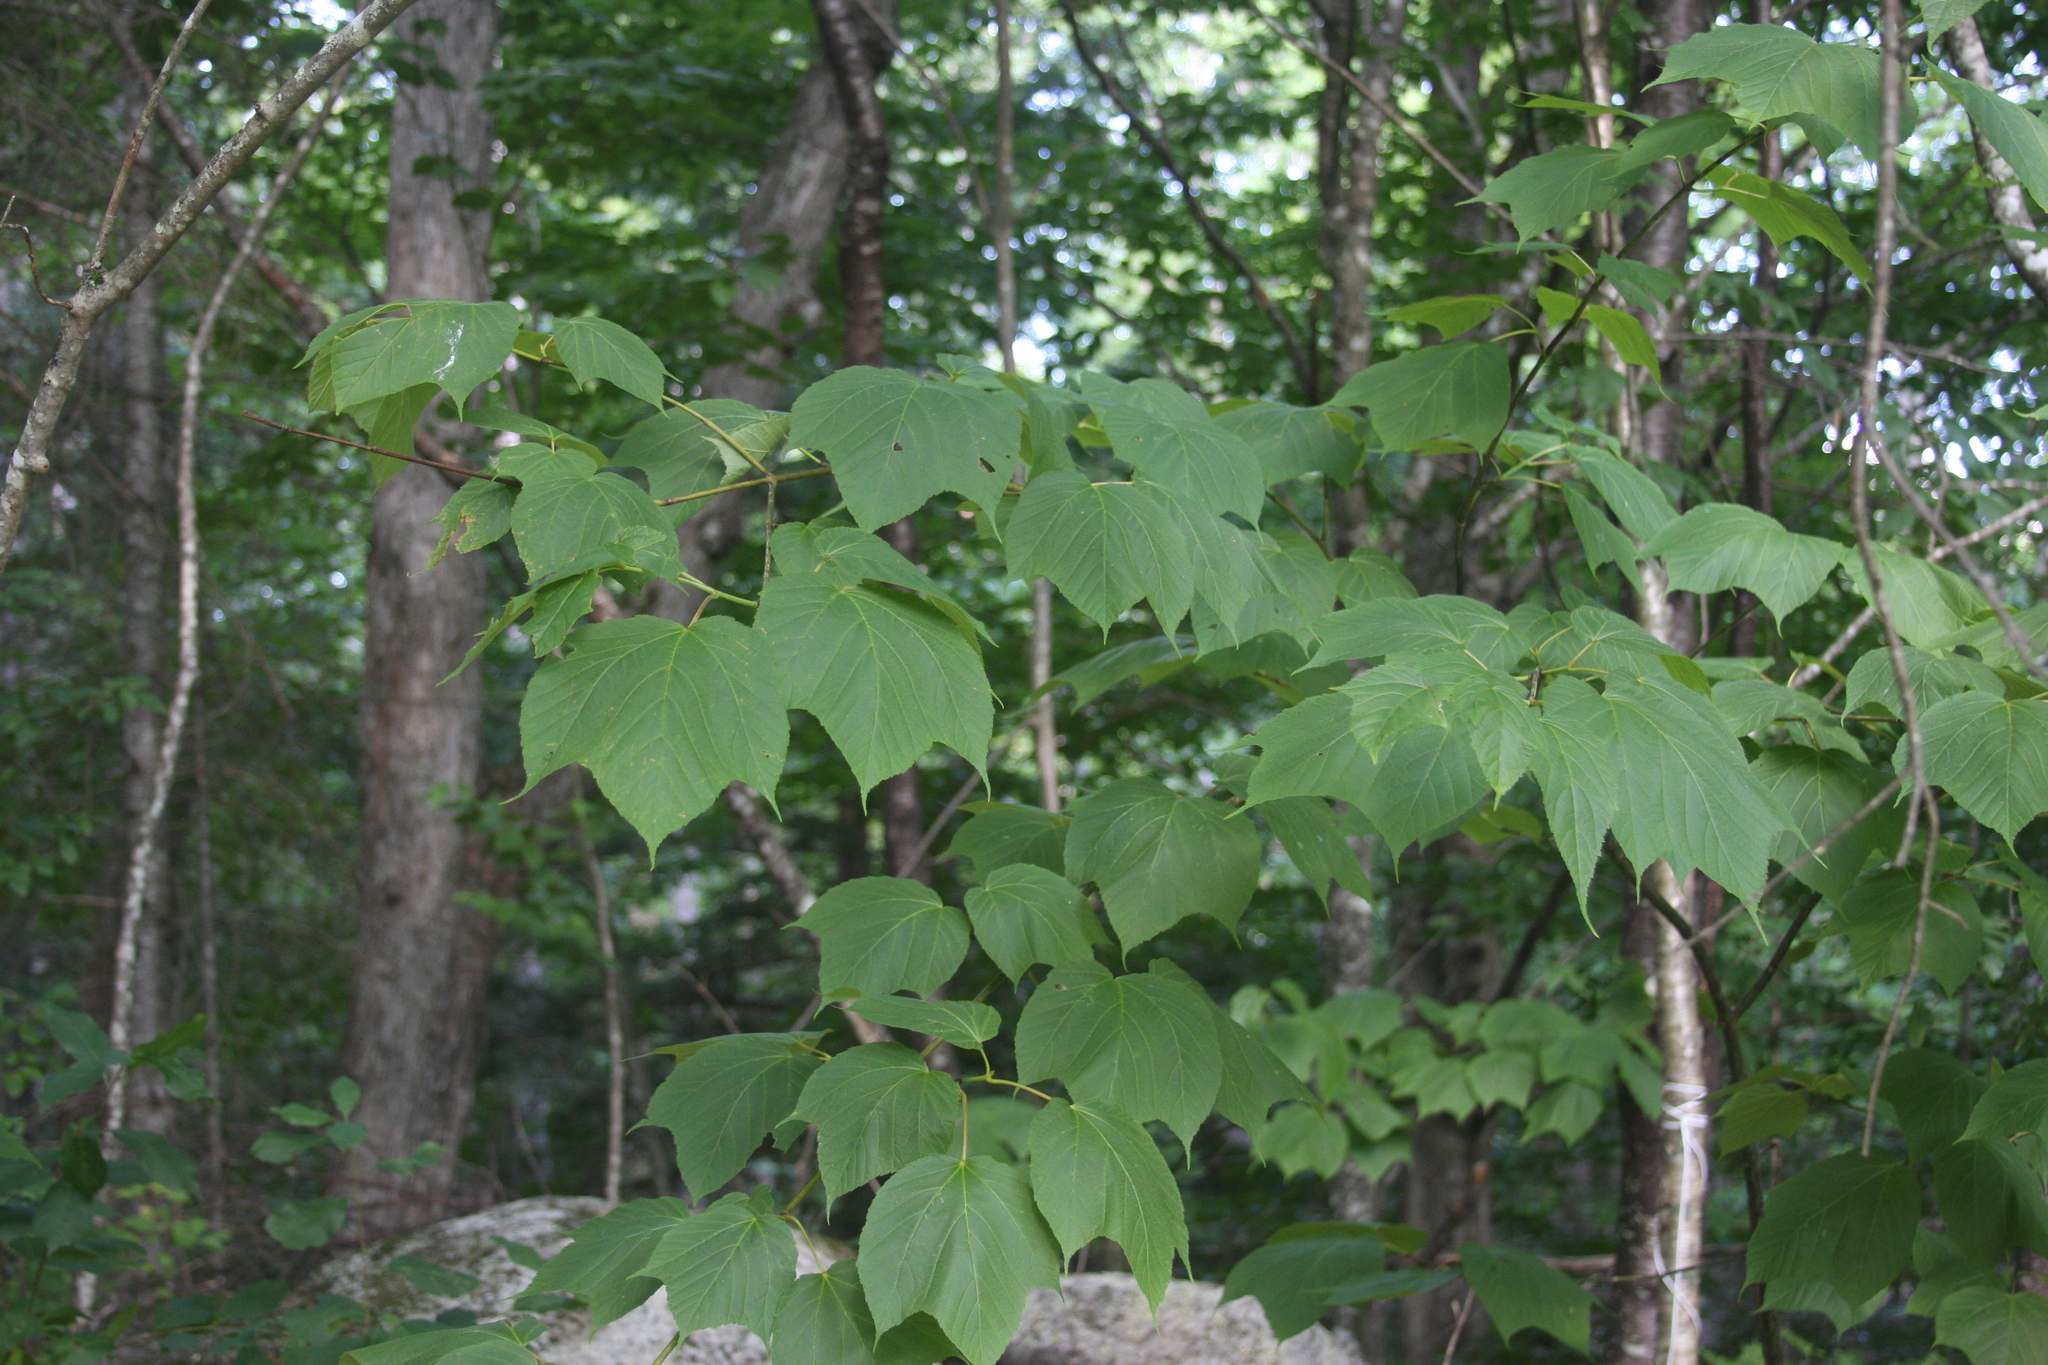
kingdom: Plantae
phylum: Tracheophyta
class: Magnoliopsida
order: Sapindales
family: Sapindaceae
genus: Acer
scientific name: Acer pensylvanicum
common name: Moosewood
